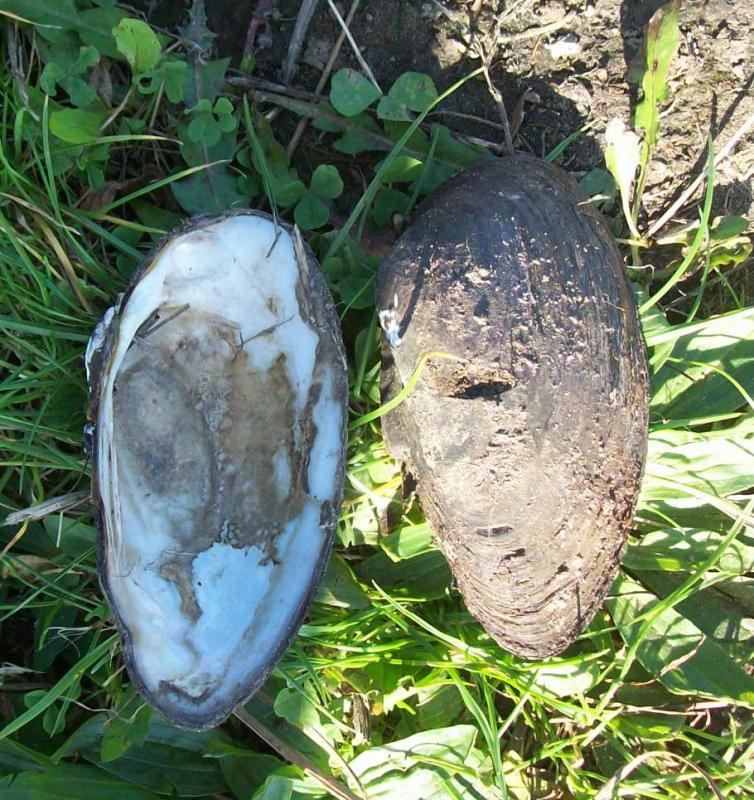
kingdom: Animalia
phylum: Mollusca
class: Bivalvia
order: Unionida
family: Unionidae
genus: Unio
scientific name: Unio tumidus
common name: Swollen river mussel
